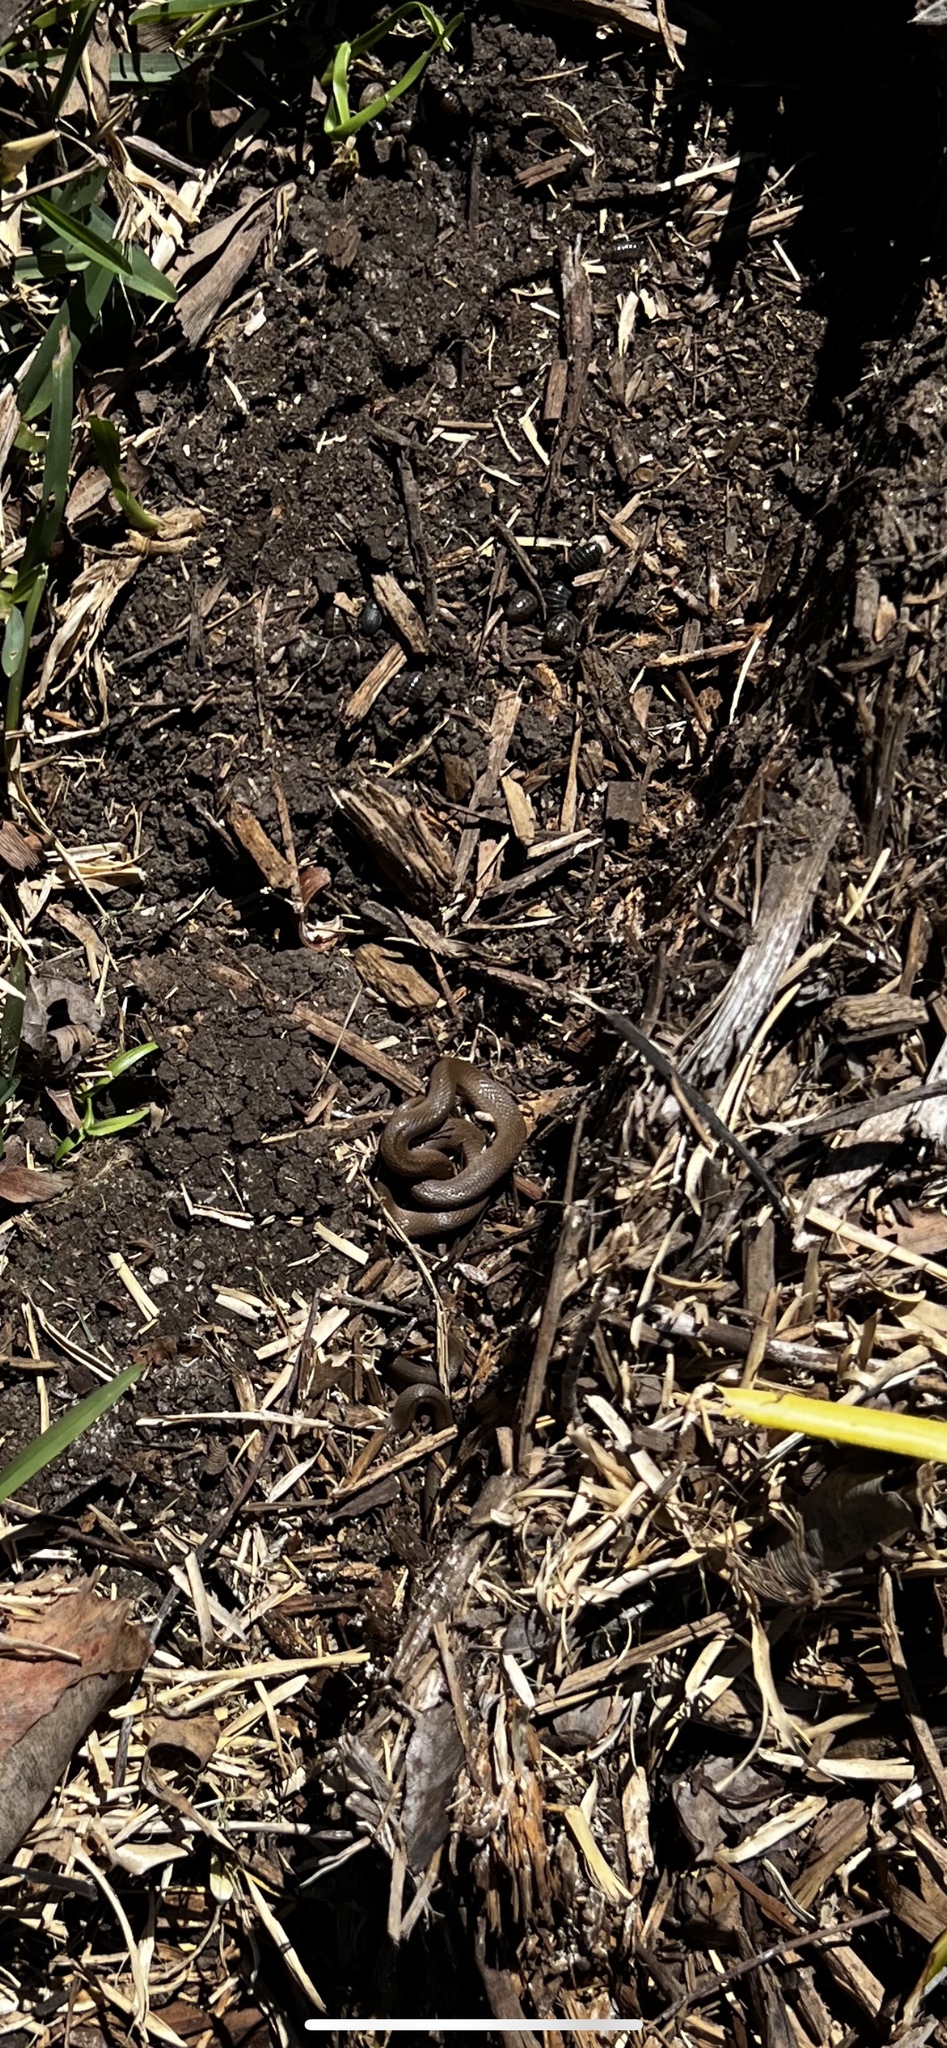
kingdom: Animalia
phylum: Chordata
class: Squamata
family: Colubridae
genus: Haldea
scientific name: Haldea striatula
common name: Rough earth snake
